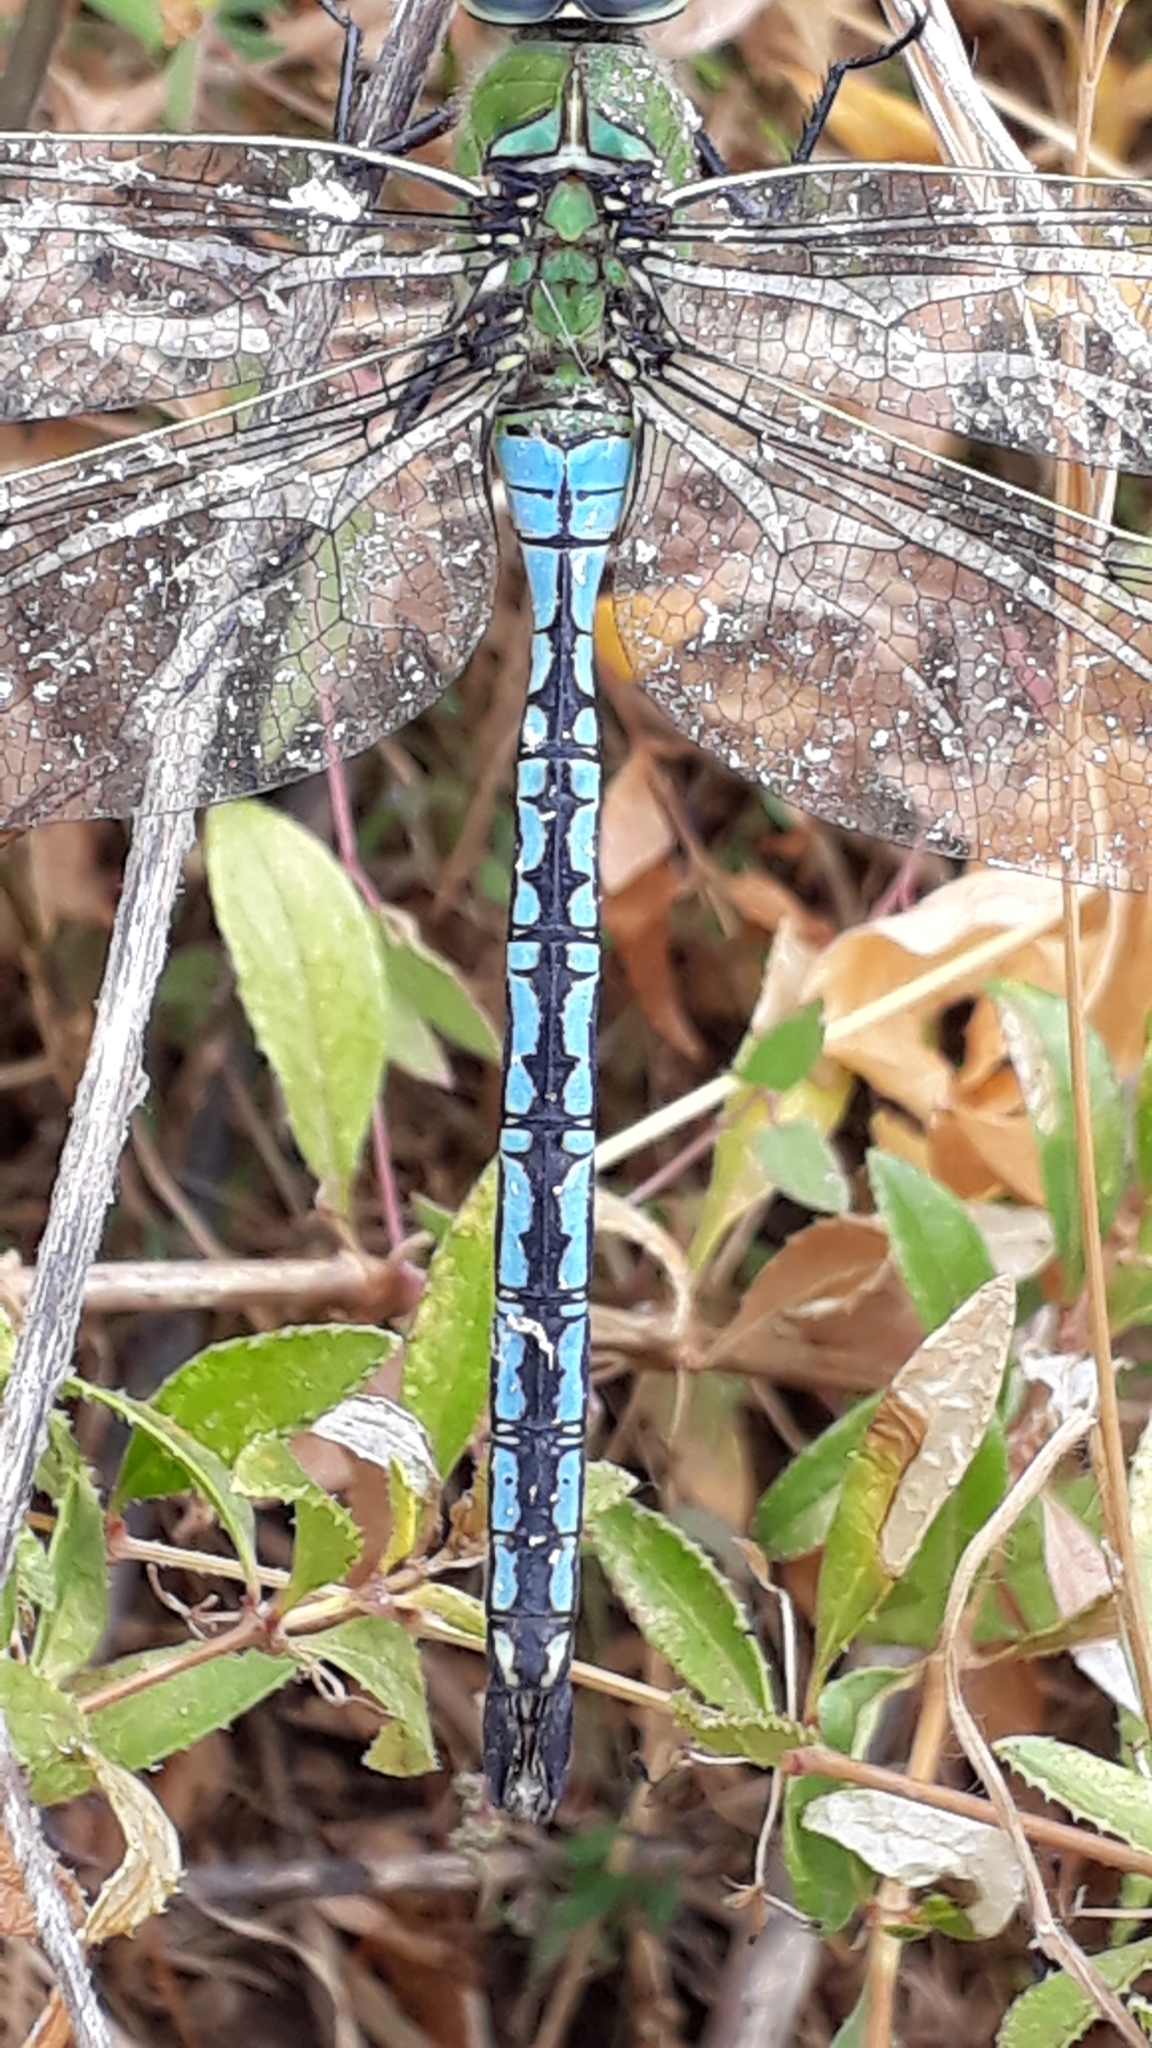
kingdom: Animalia
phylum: Arthropoda
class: Insecta
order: Odonata
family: Aeshnidae
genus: Anax
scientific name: Anax imperator
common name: Emperor dragonfly
